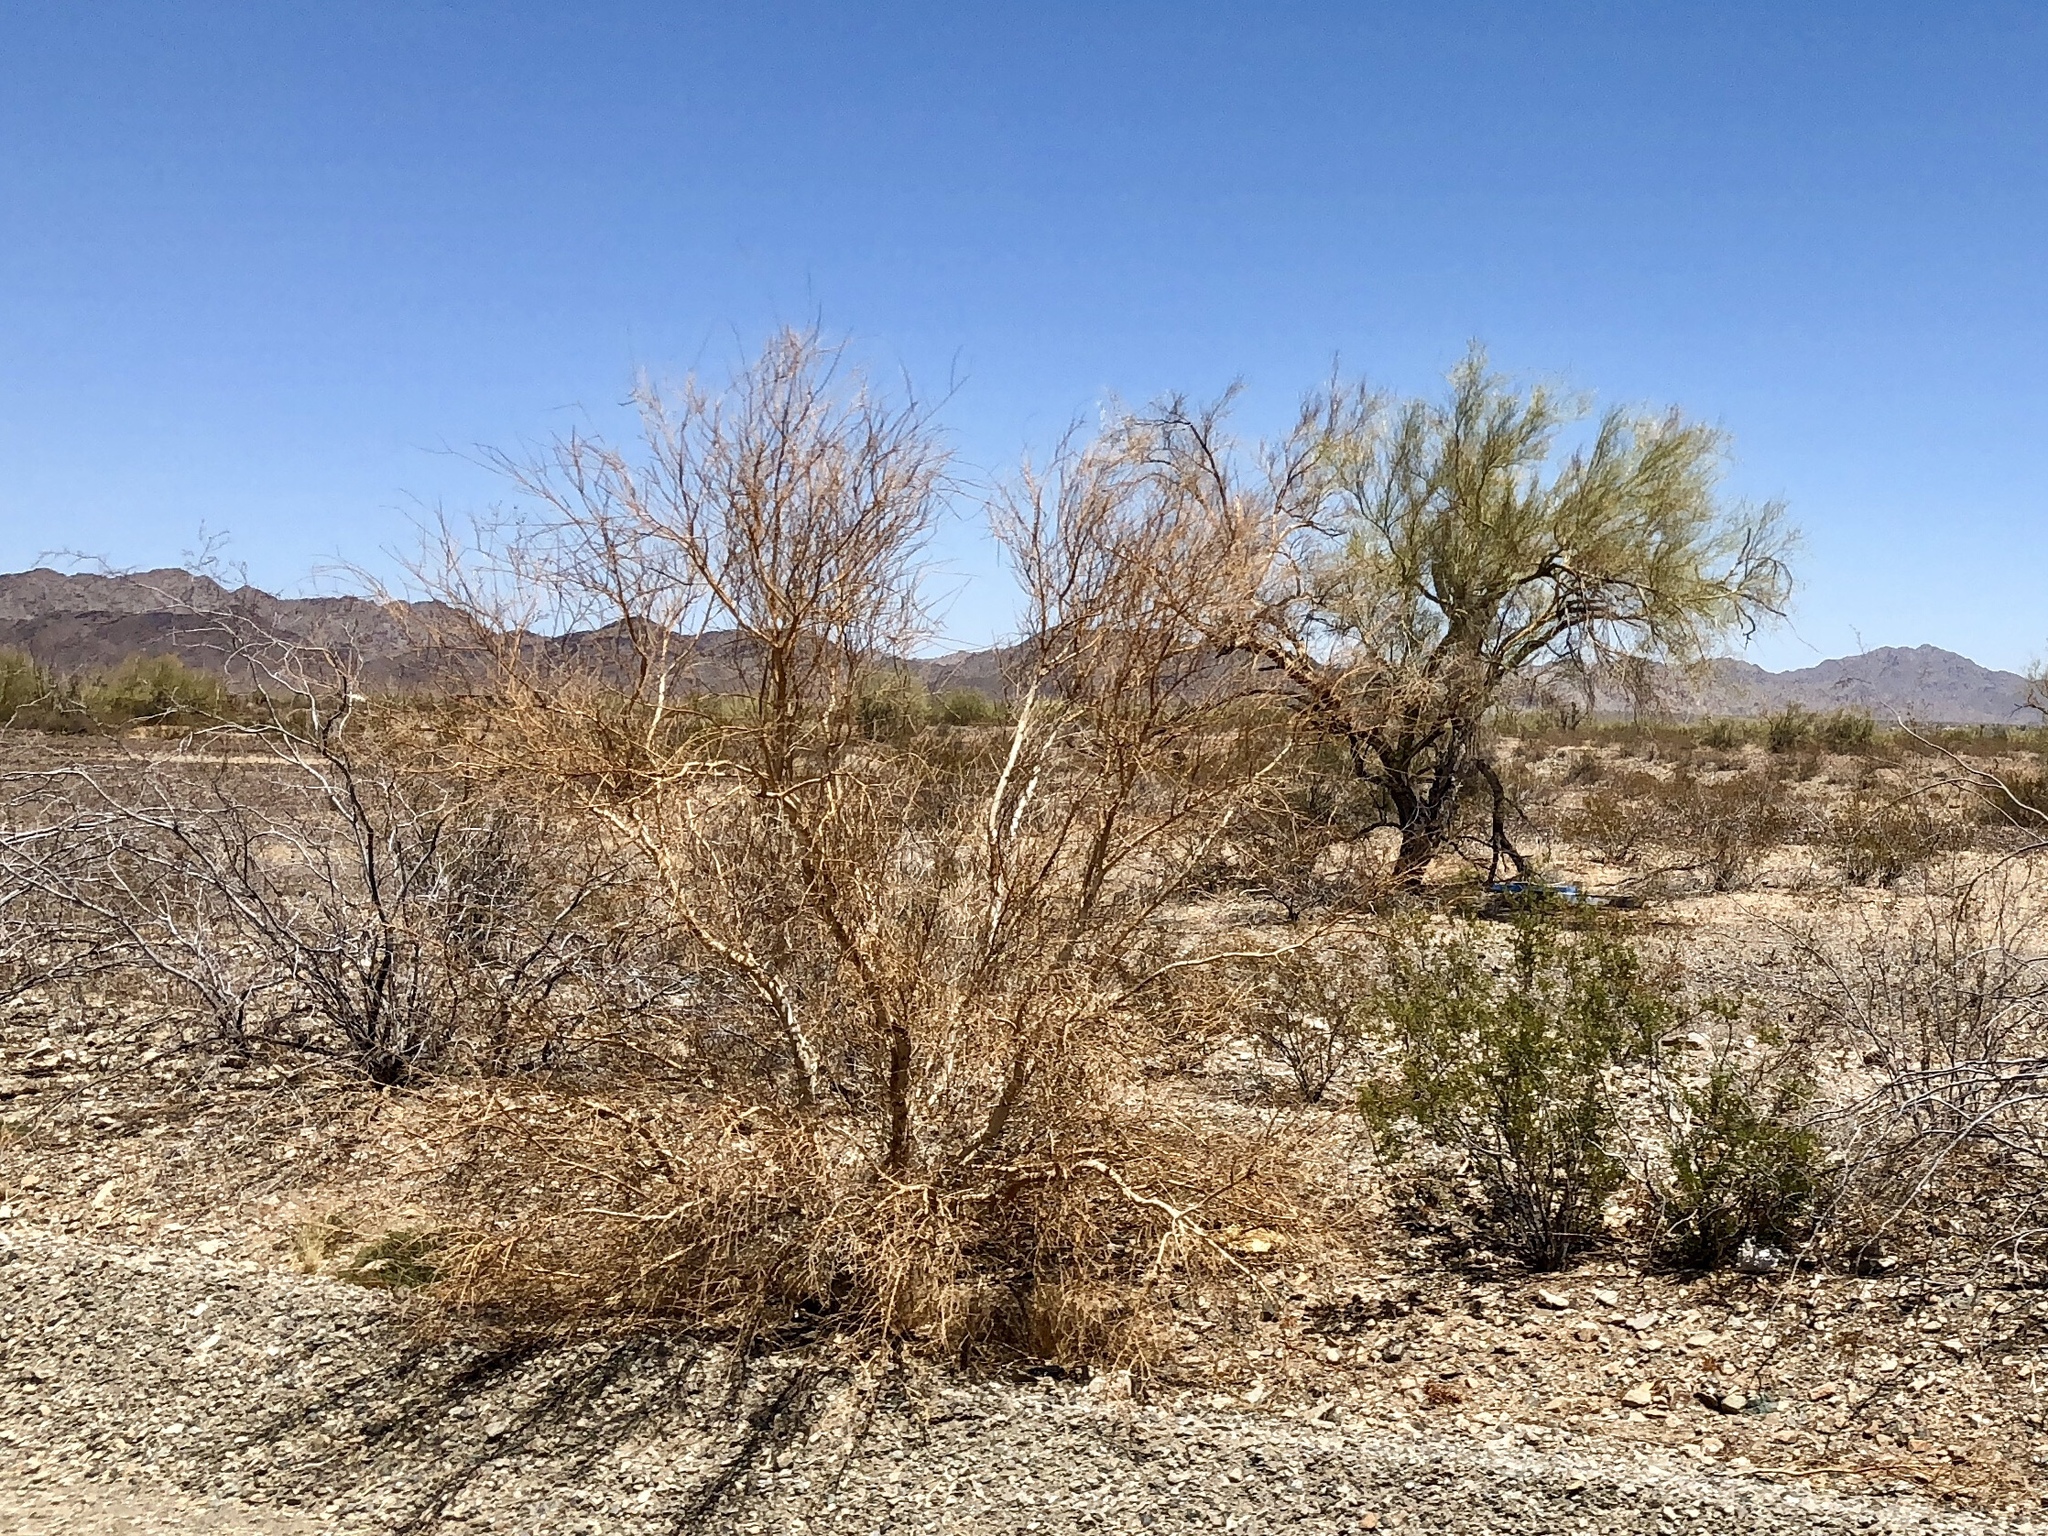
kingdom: Plantae
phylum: Tracheophyta
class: Magnoliopsida
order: Fabales
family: Fabaceae
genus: Parkinsonia
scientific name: Parkinsonia microphylla
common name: Yellow paloverde
